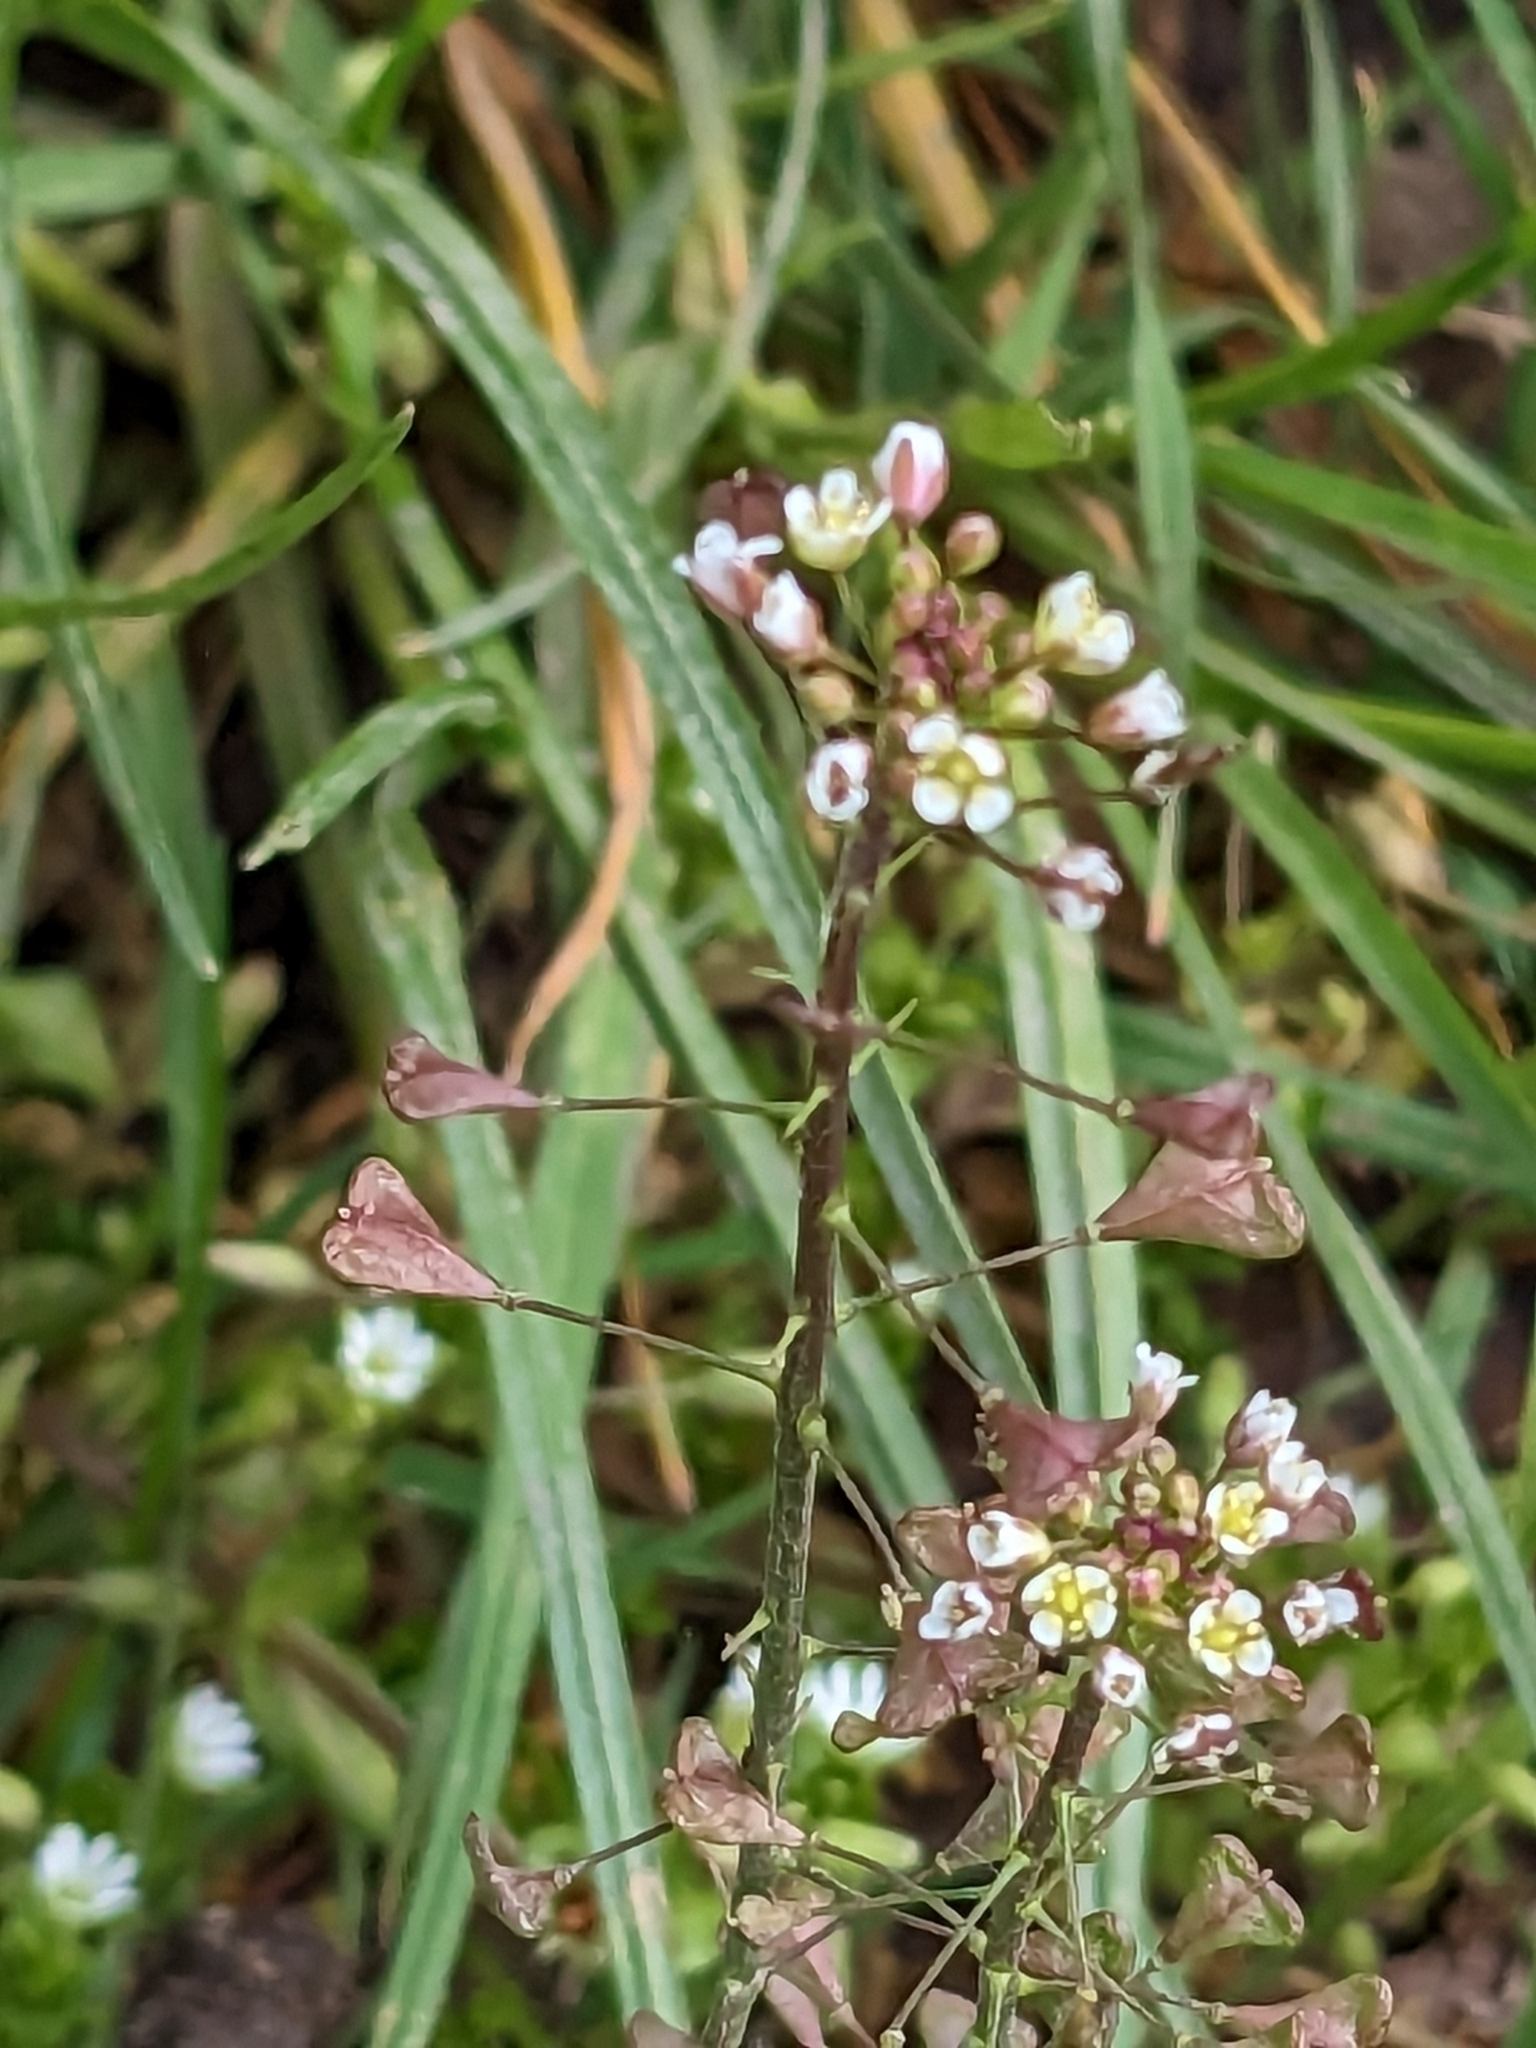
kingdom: Plantae
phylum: Tracheophyta
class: Magnoliopsida
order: Brassicales
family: Brassicaceae
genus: Capsella
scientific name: Capsella bursa-pastoris
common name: Shepherd's purse
